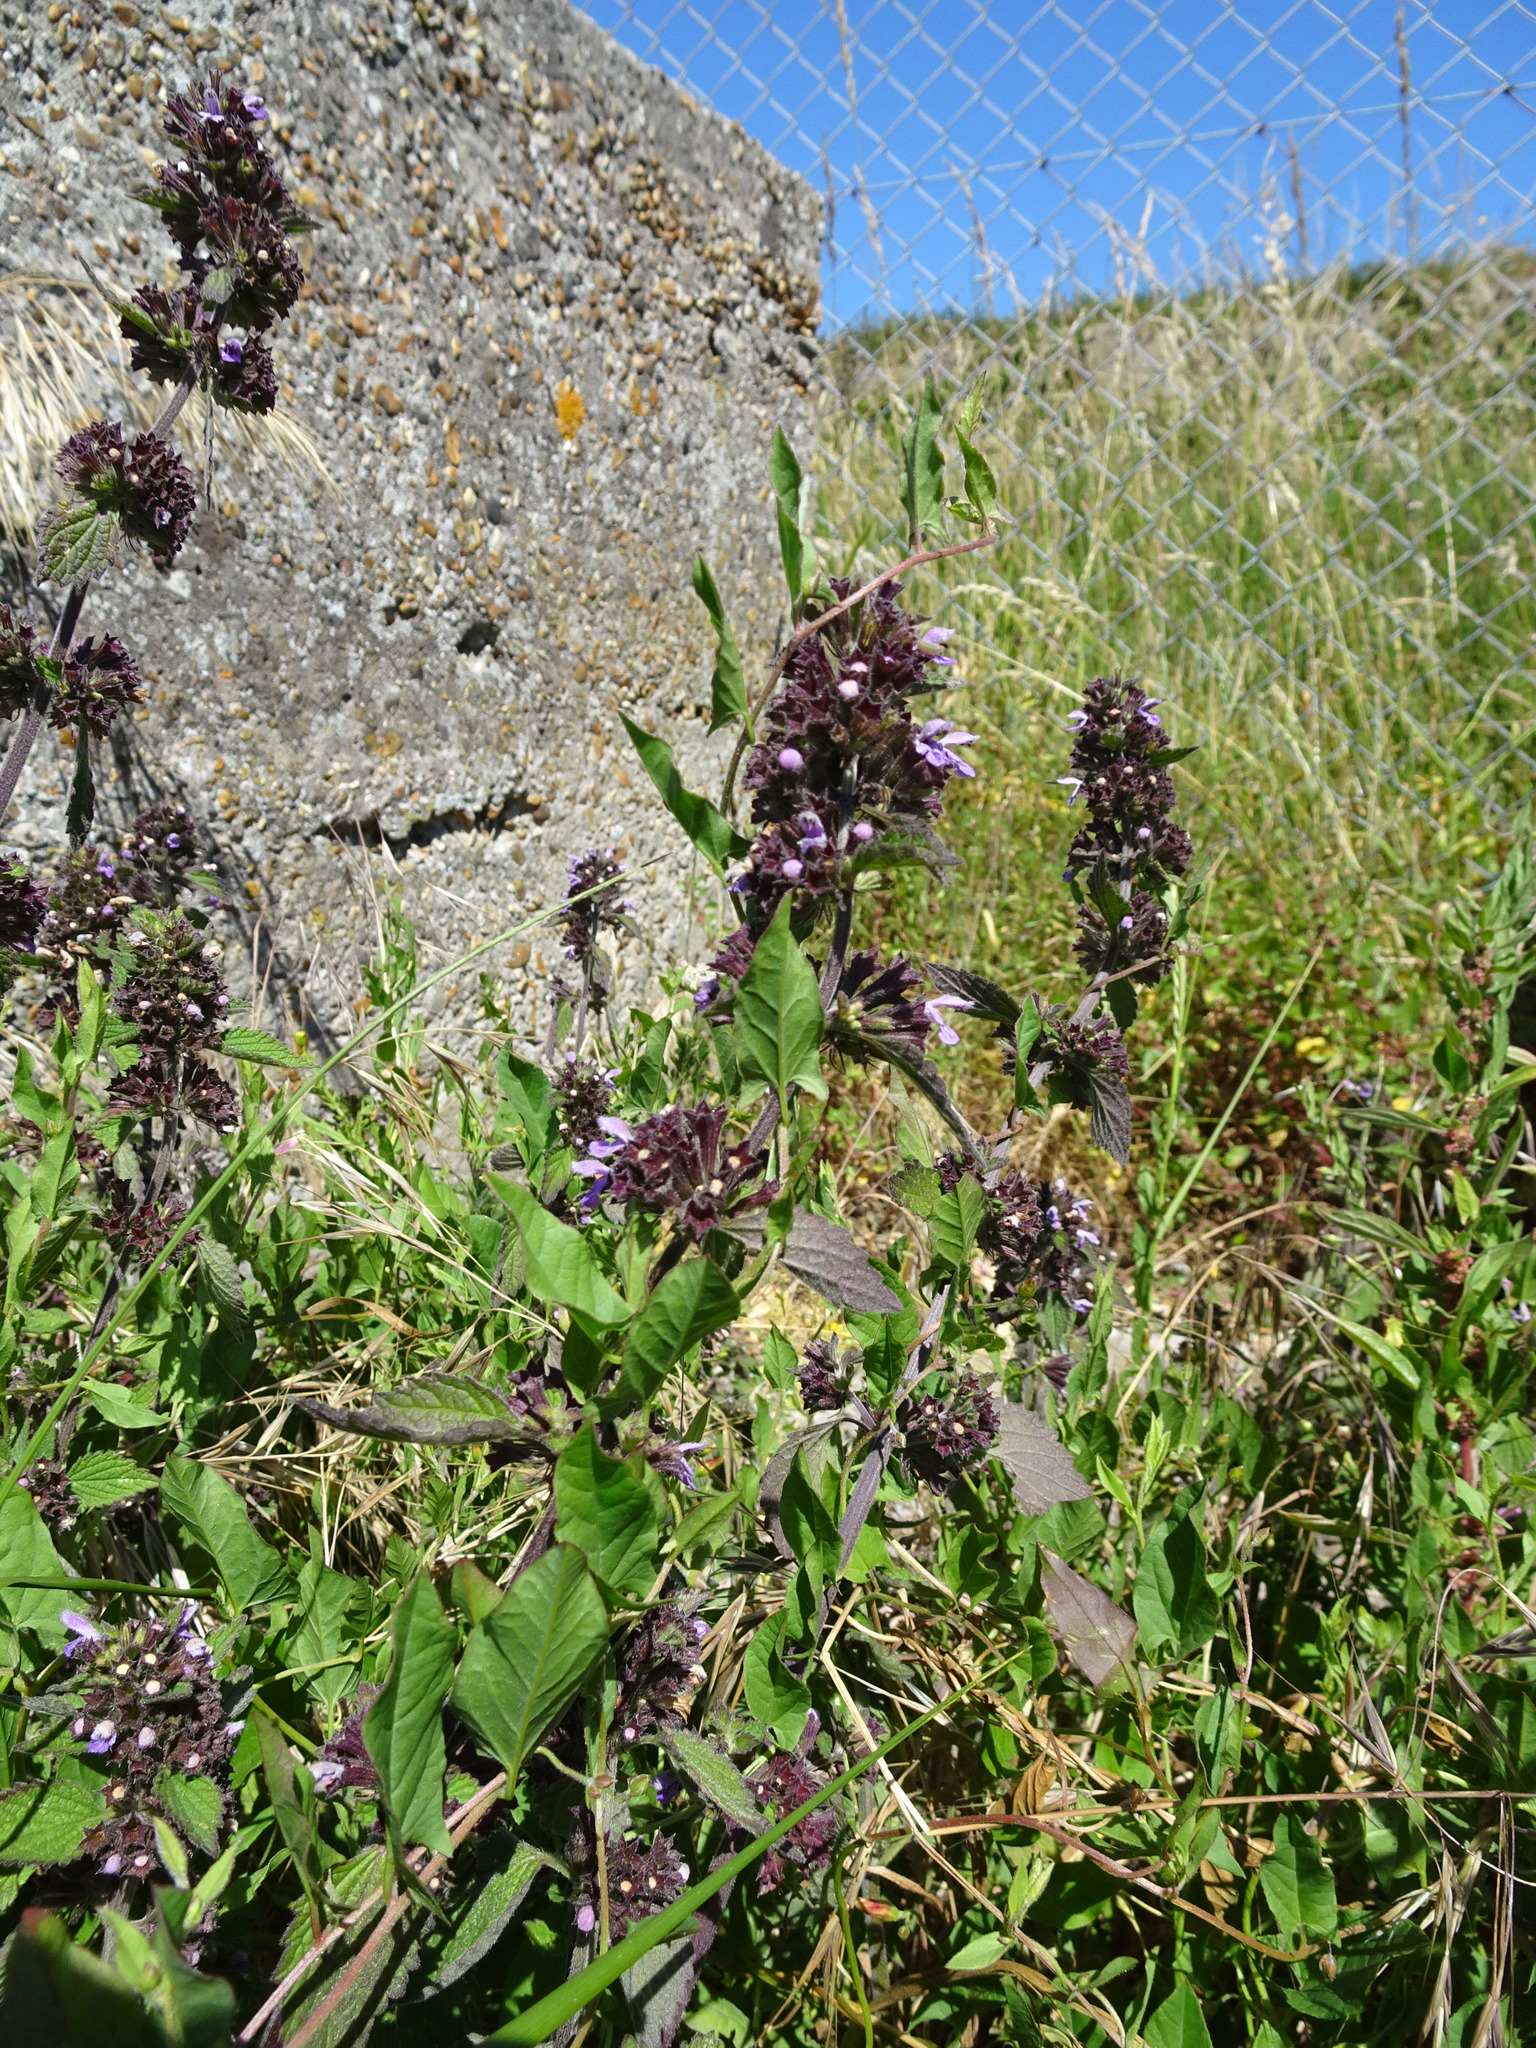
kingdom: Plantae
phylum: Tracheophyta
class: Magnoliopsida
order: Lamiales
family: Lamiaceae
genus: Ballota
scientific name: Ballota nigra
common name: Black horehound
